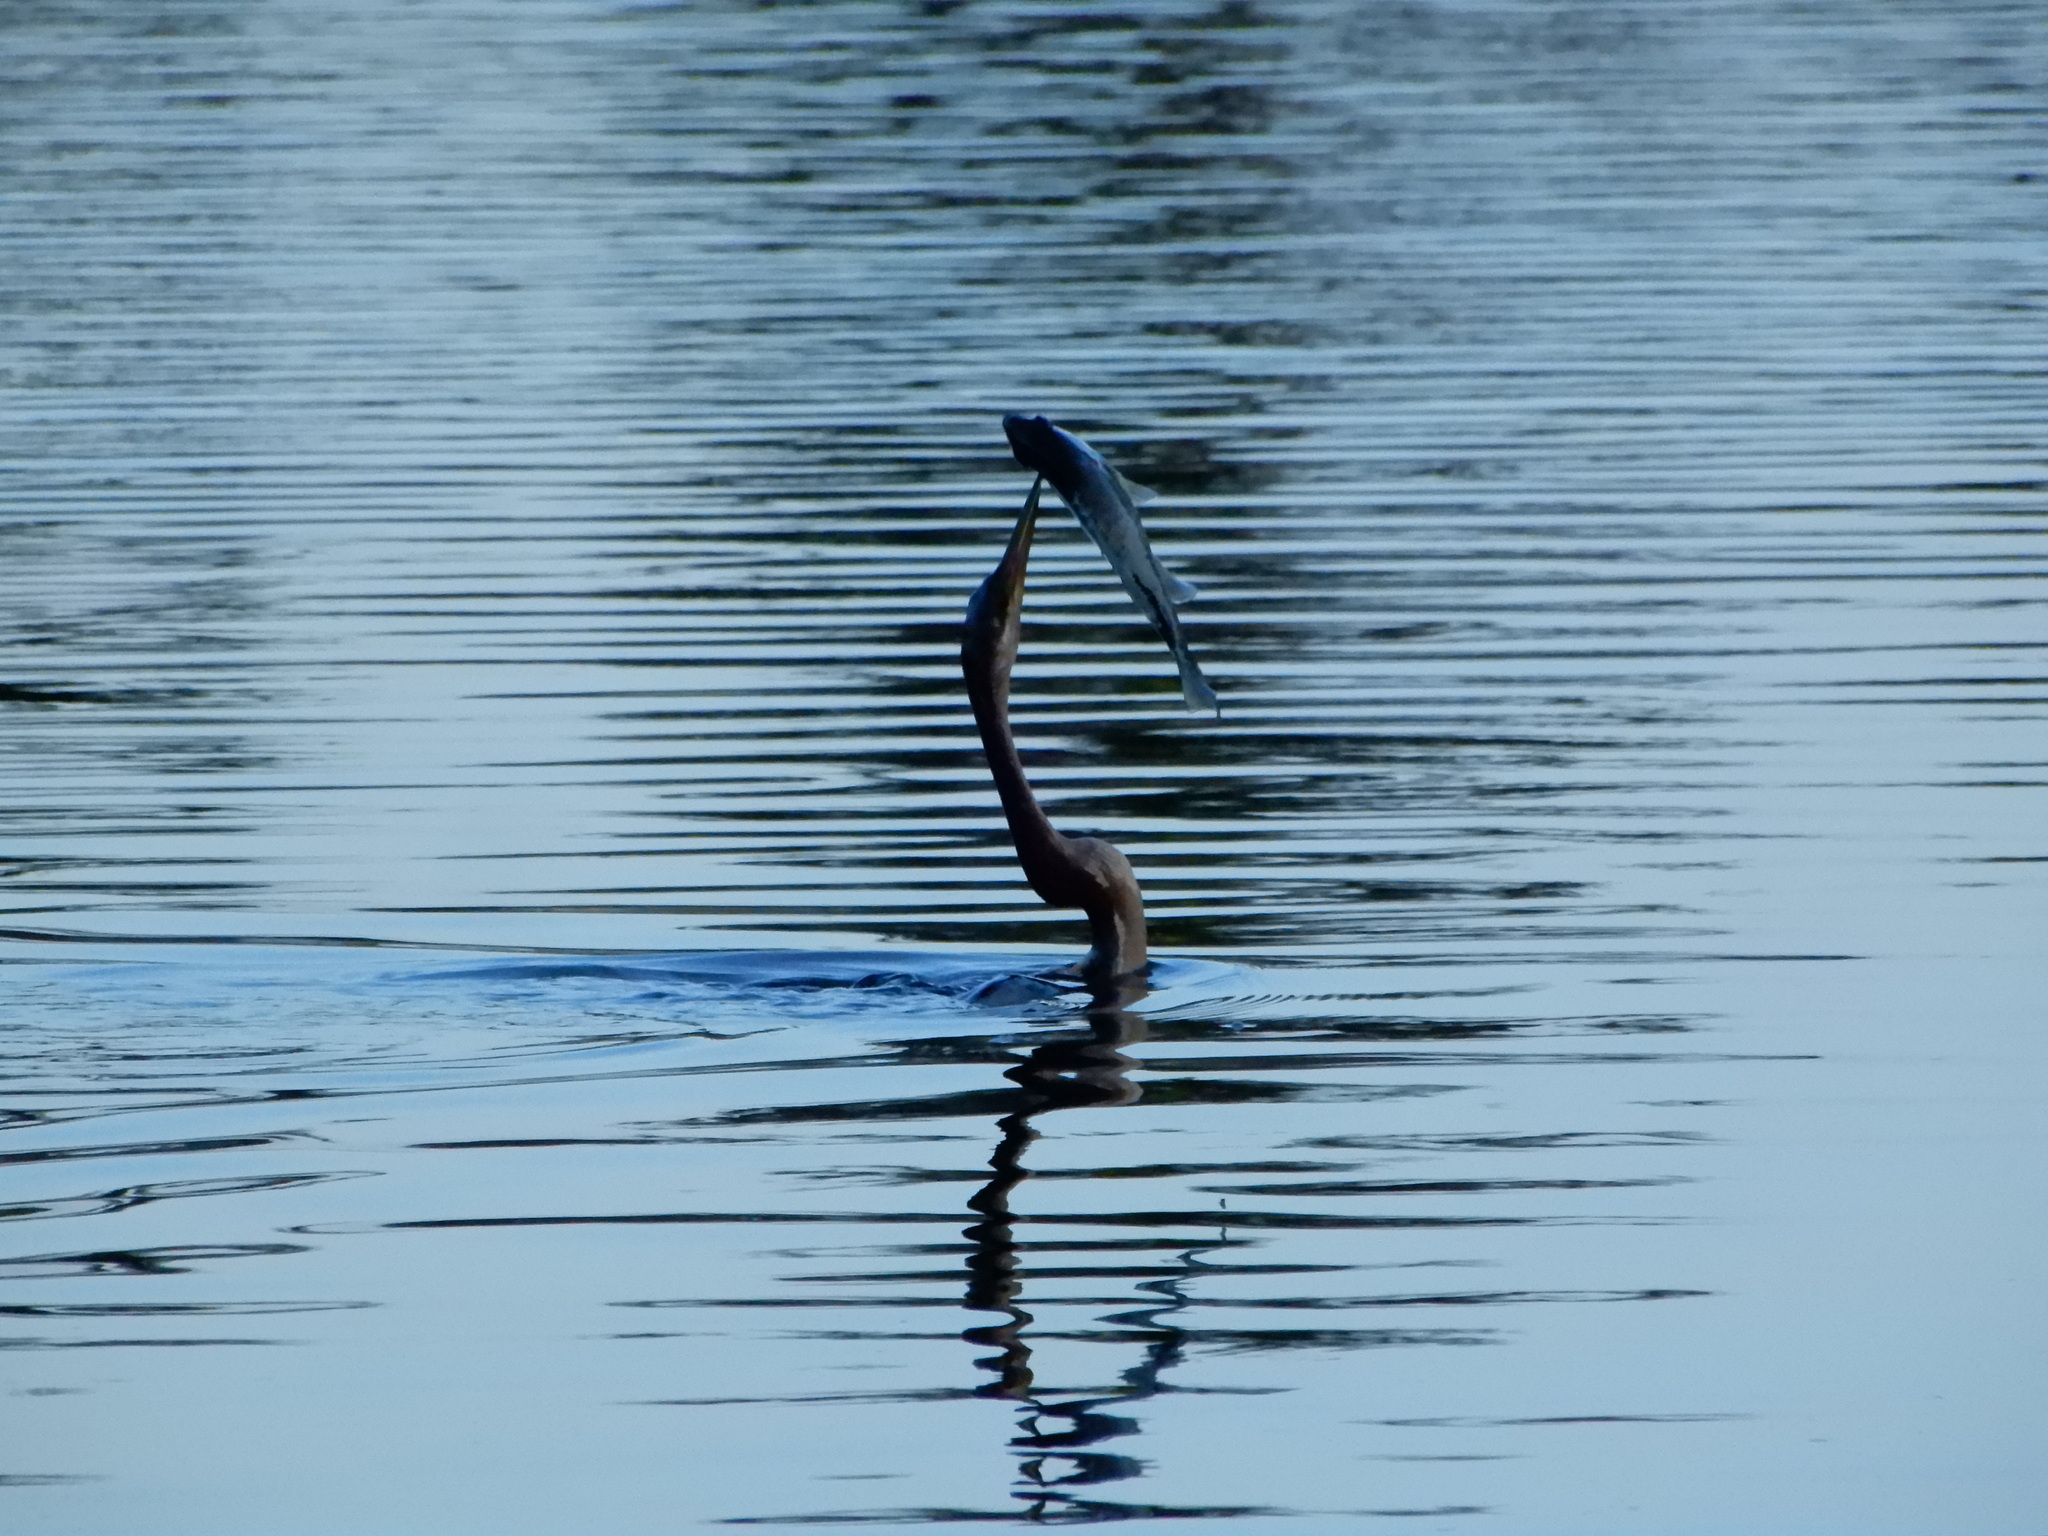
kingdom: Animalia
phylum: Chordata
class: Aves
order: Suliformes
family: Anhingidae
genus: Anhinga
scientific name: Anhinga anhinga
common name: Anhinga
